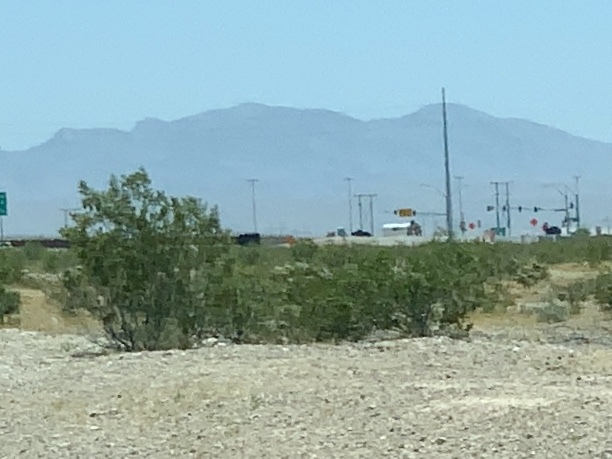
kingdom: Plantae
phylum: Tracheophyta
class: Magnoliopsida
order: Zygophyllales
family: Zygophyllaceae
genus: Larrea
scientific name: Larrea tridentata
